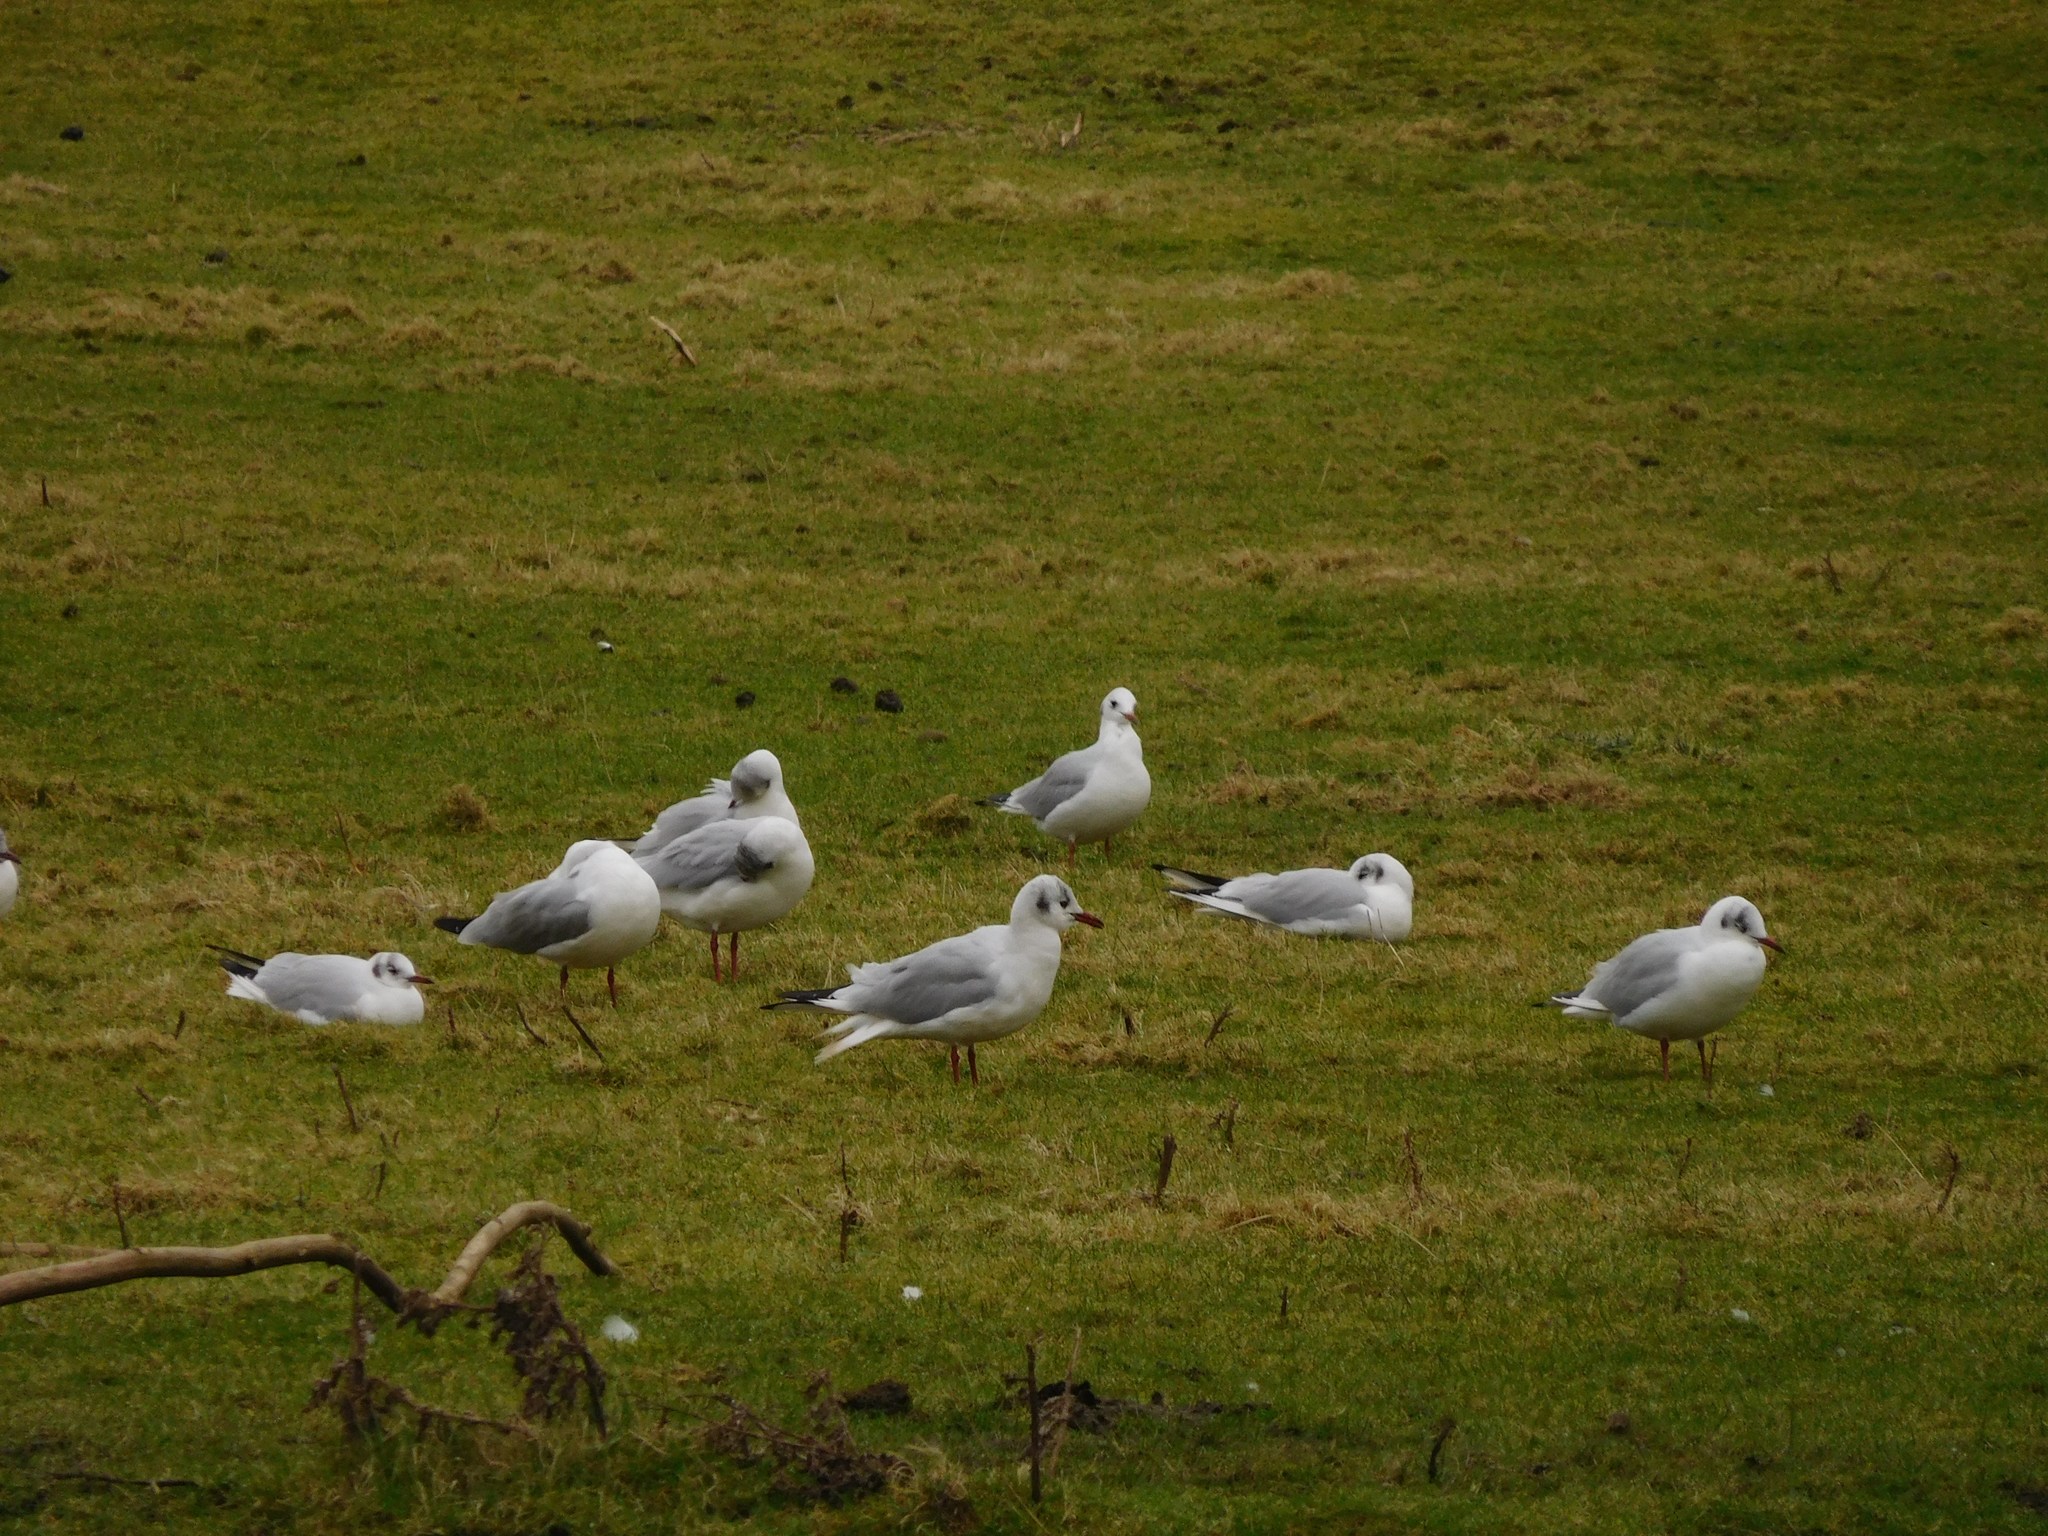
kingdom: Animalia
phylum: Chordata
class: Aves
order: Charadriiformes
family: Laridae
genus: Chroicocephalus
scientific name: Chroicocephalus ridibundus
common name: Black-headed gull
